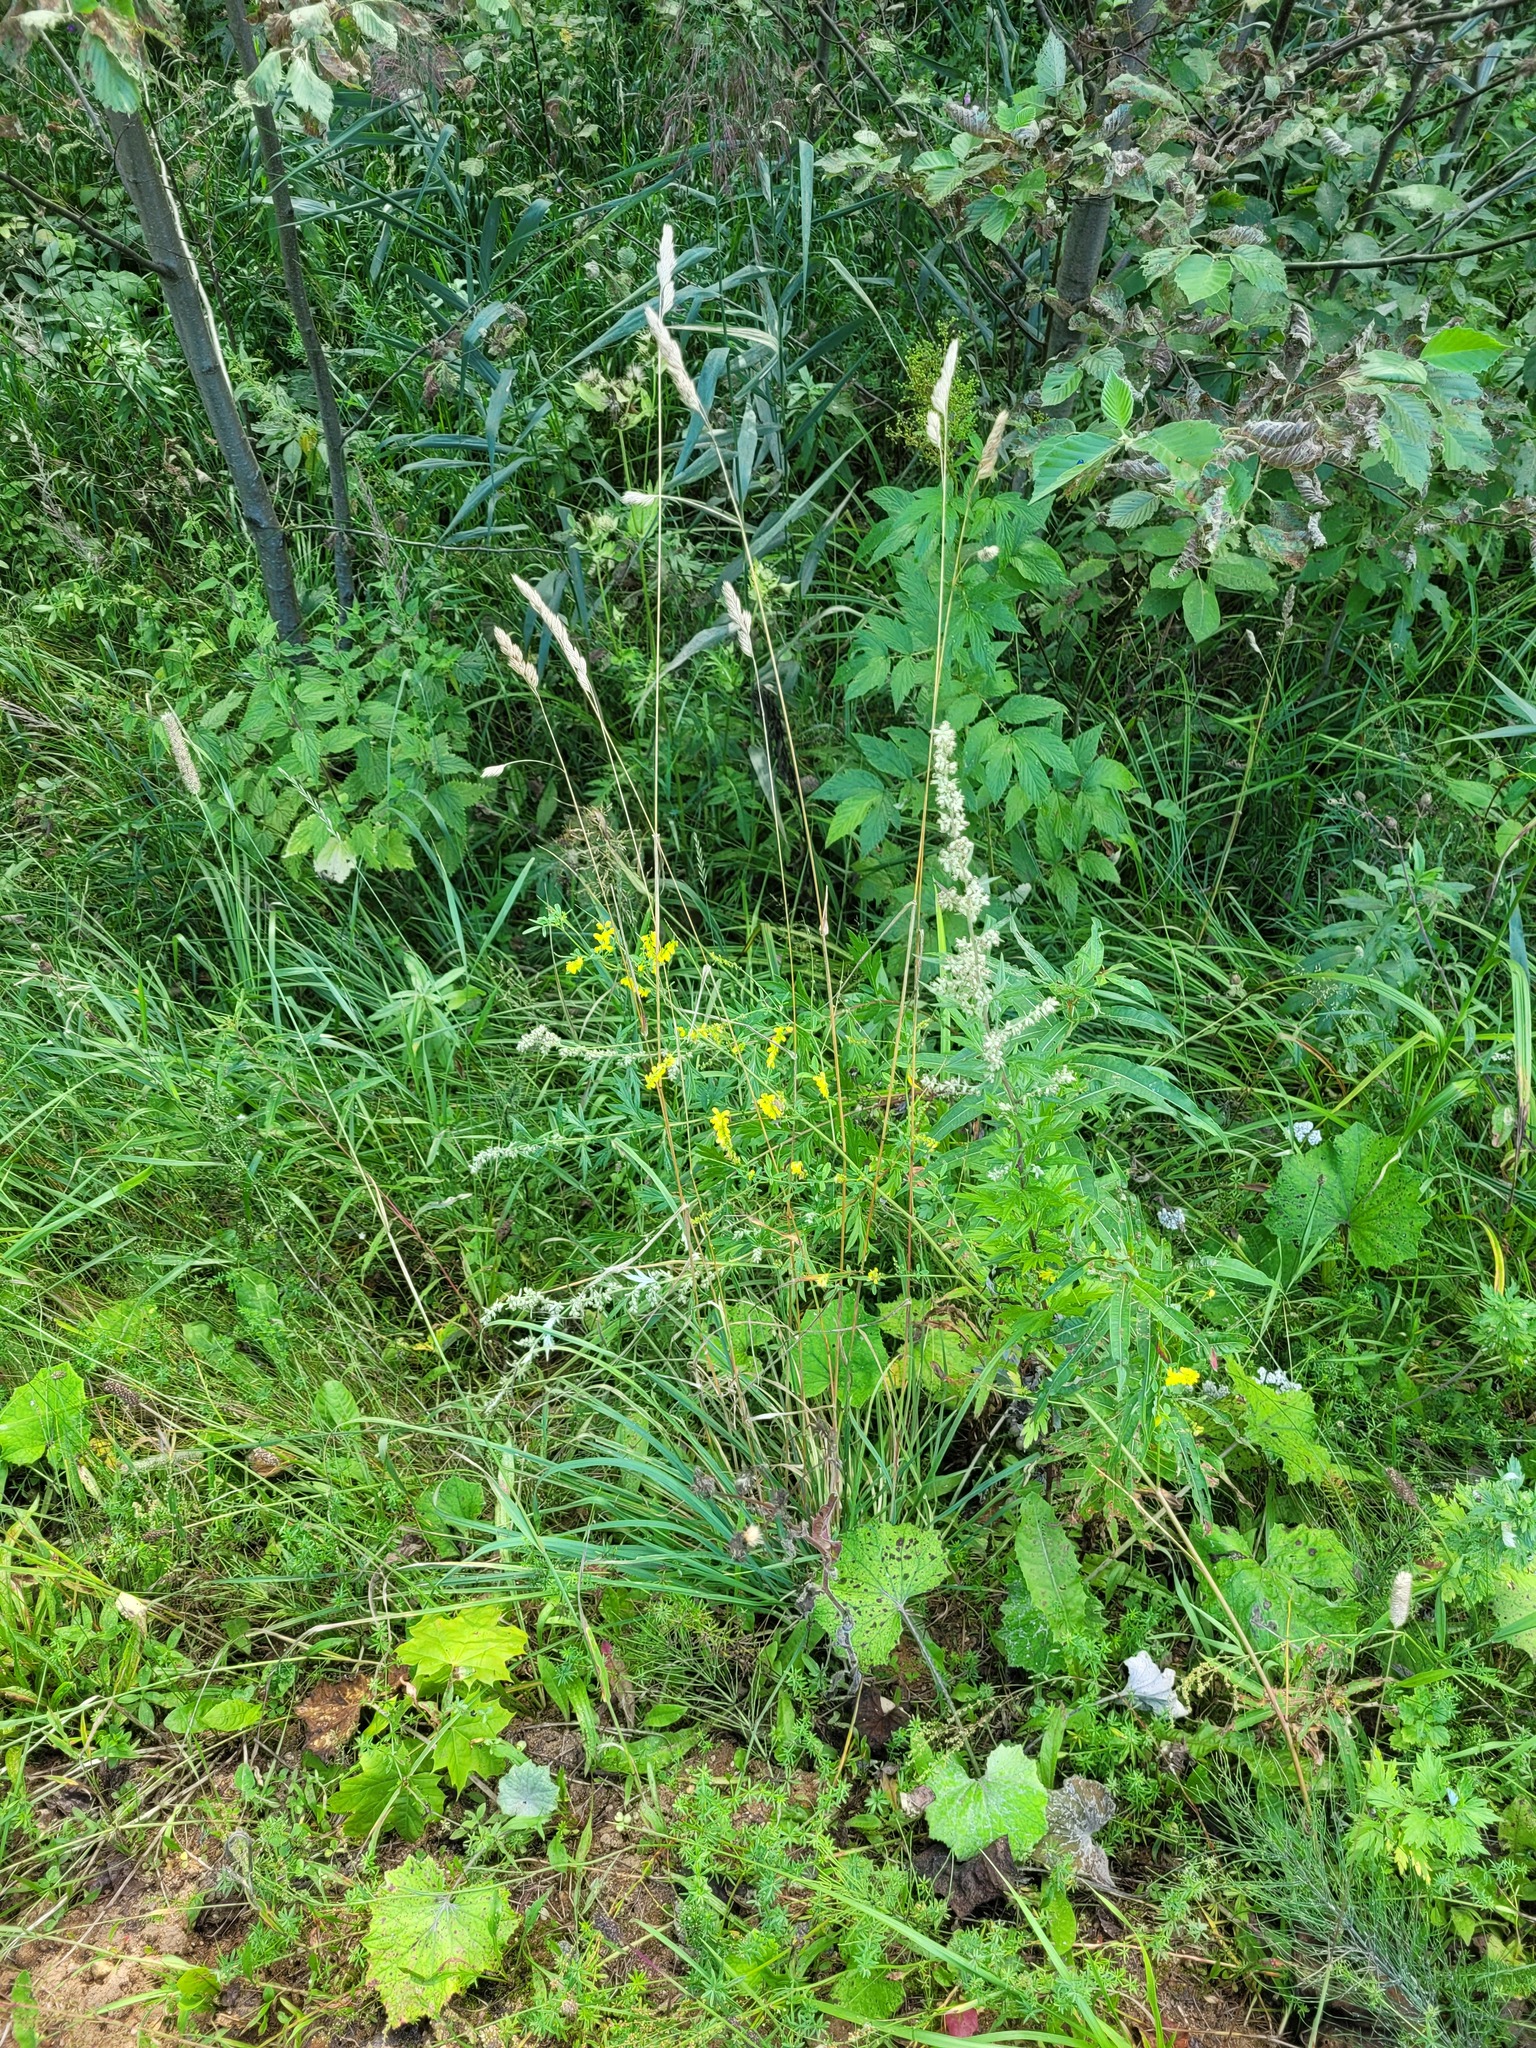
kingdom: Plantae
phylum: Tracheophyta
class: Liliopsida
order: Poales
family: Poaceae
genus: Dactylis
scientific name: Dactylis glomerata
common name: Orchardgrass
